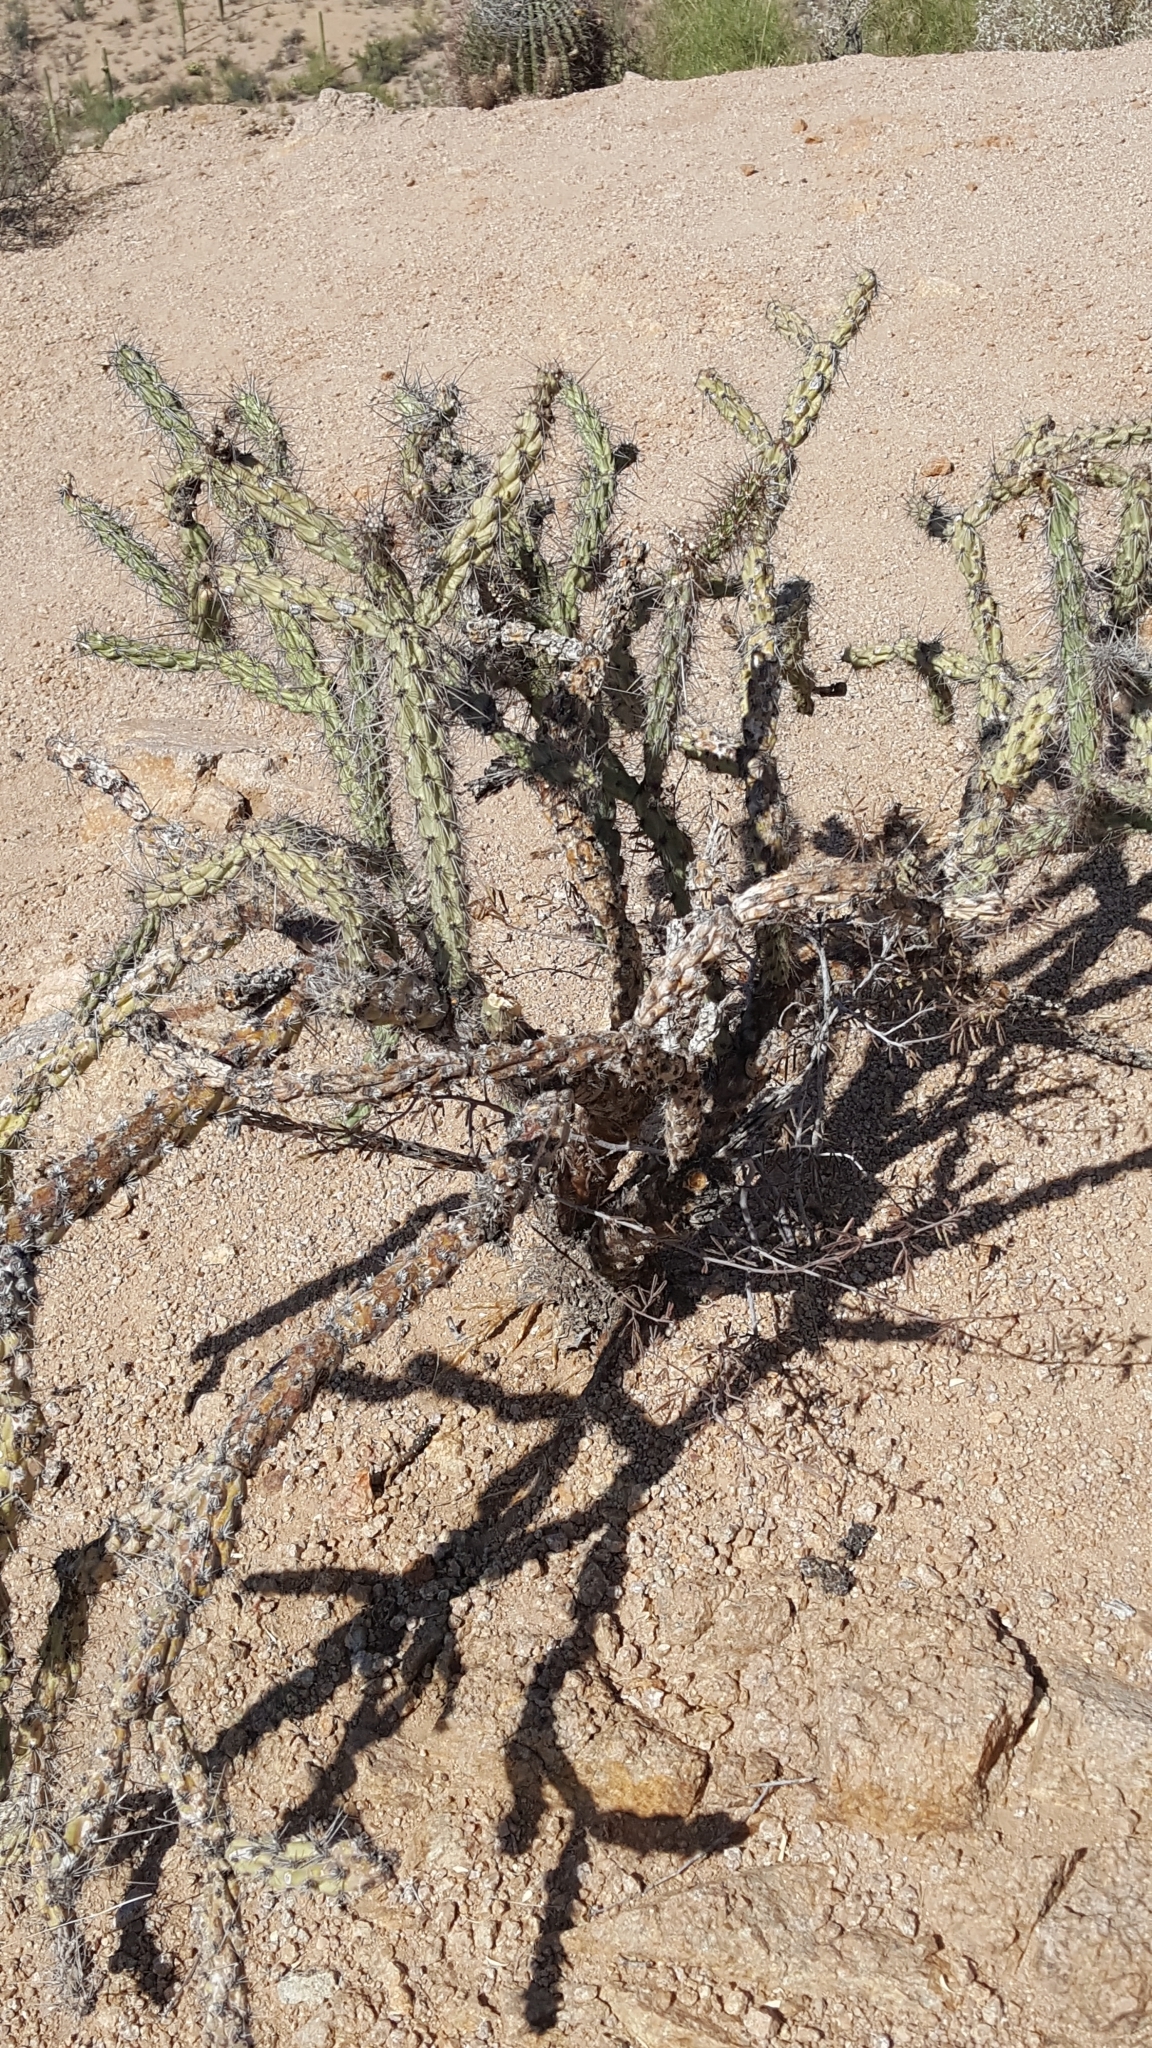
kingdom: Plantae
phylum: Tracheophyta
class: Magnoliopsida
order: Caryophyllales
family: Cactaceae
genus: Cylindropuntia
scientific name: Cylindropuntia acanthocarpa
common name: Buckhorn cholla
